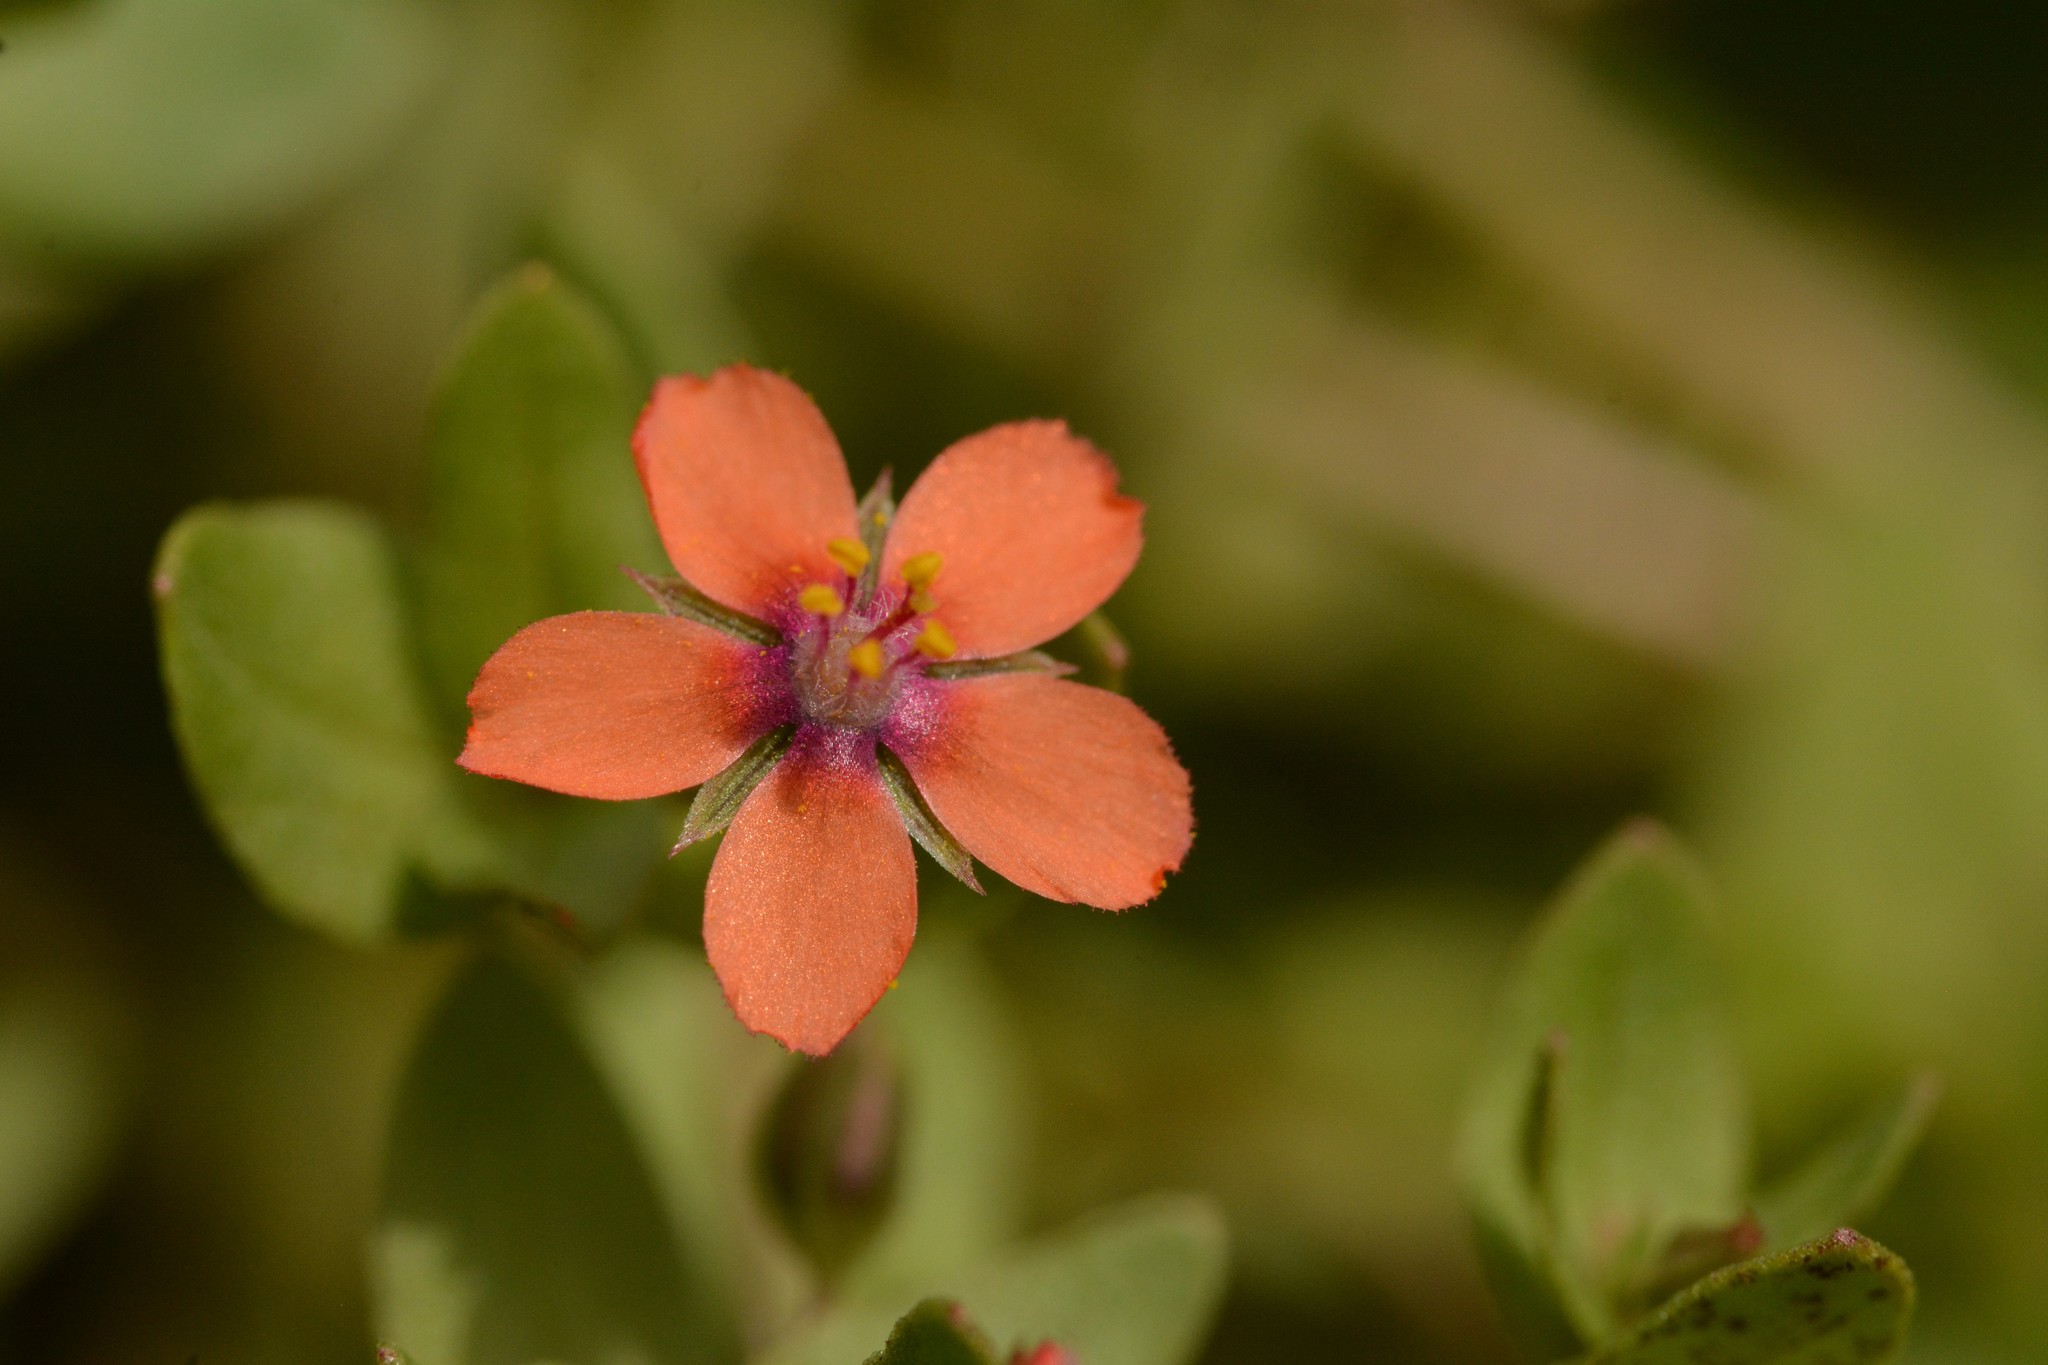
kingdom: Plantae
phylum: Tracheophyta
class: Magnoliopsida
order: Ericales
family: Primulaceae
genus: Lysimachia
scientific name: Lysimachia arvensis
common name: Scarlet pimpernel
